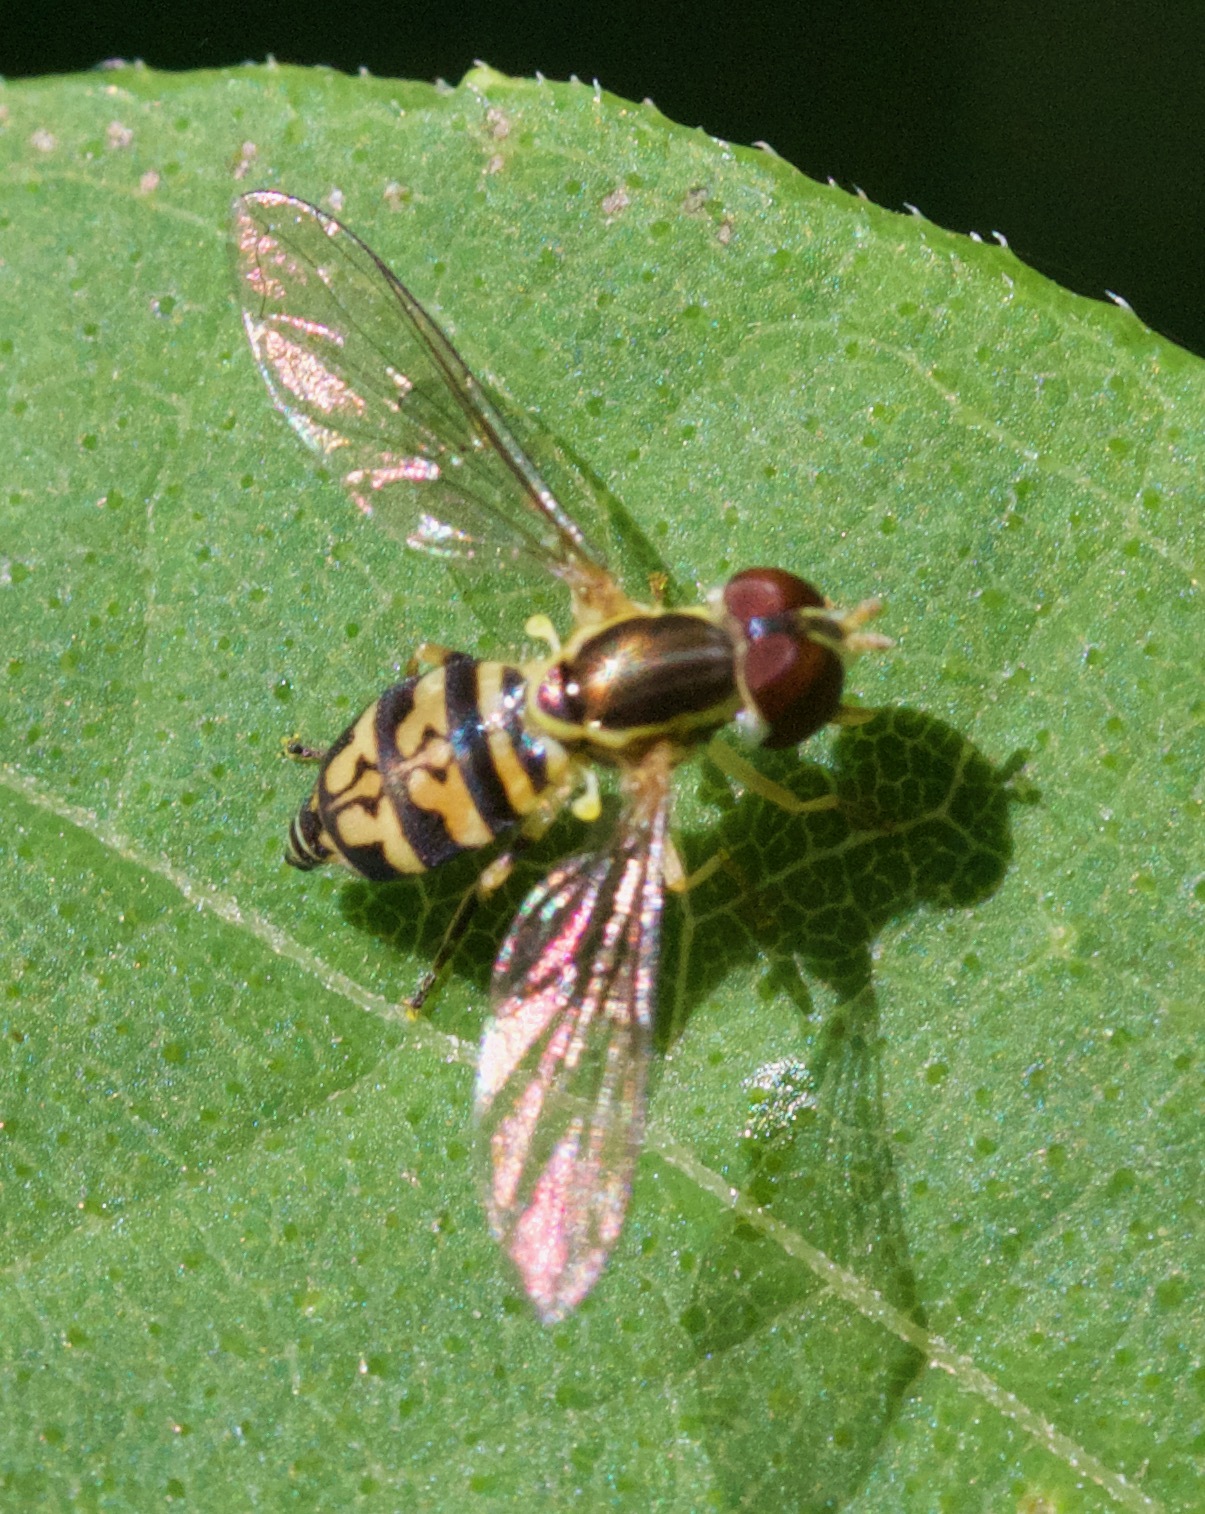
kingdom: Animalia
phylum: Arthropoda
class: Insecta
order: Diptera
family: Syrphidae
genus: Toxomerus
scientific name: Toxomerus geminatus
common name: Eastern calligrapher
